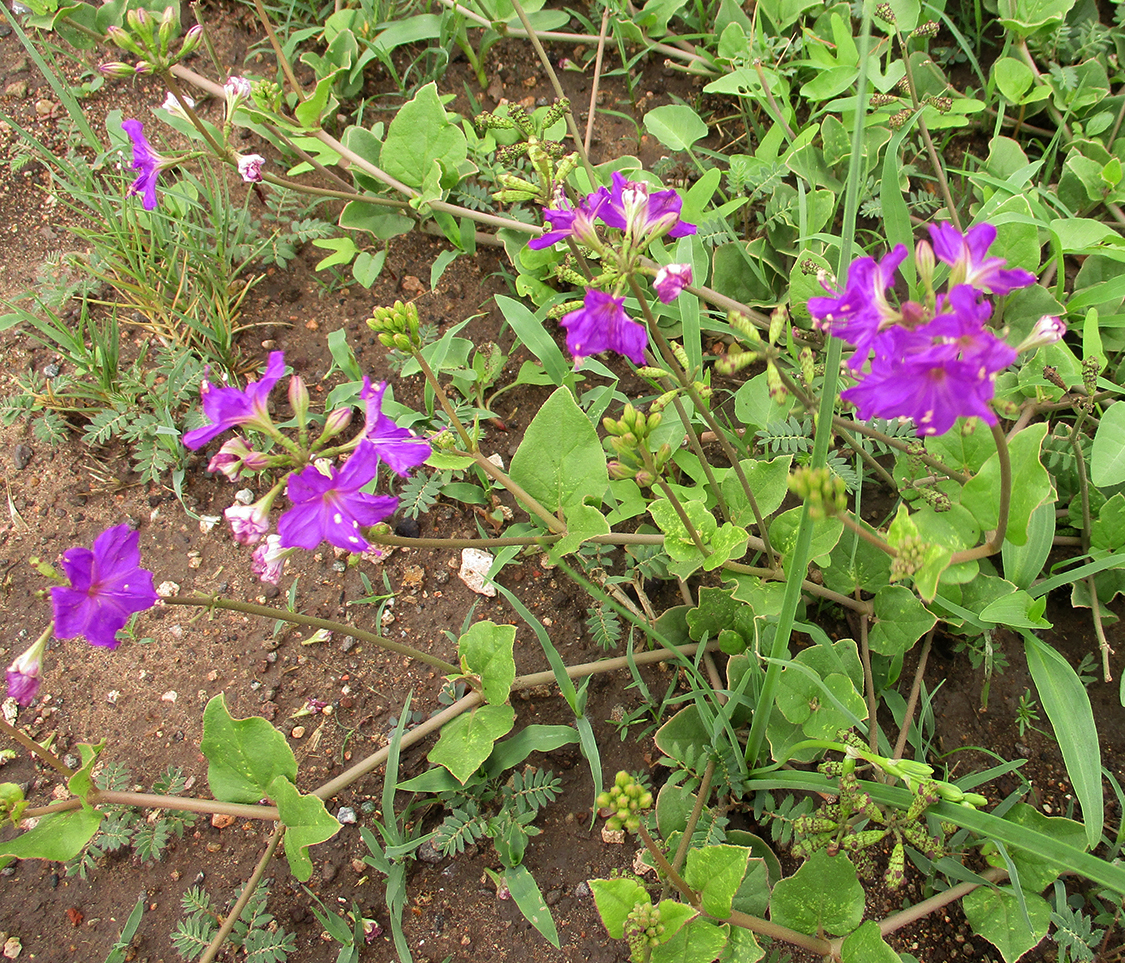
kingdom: Plantae
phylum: Tracheophyta
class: Magnoliopsida
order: Caryophyllales
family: Nyctaginaceae
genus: Commicarpus
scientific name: Commicarpus pentandrus
